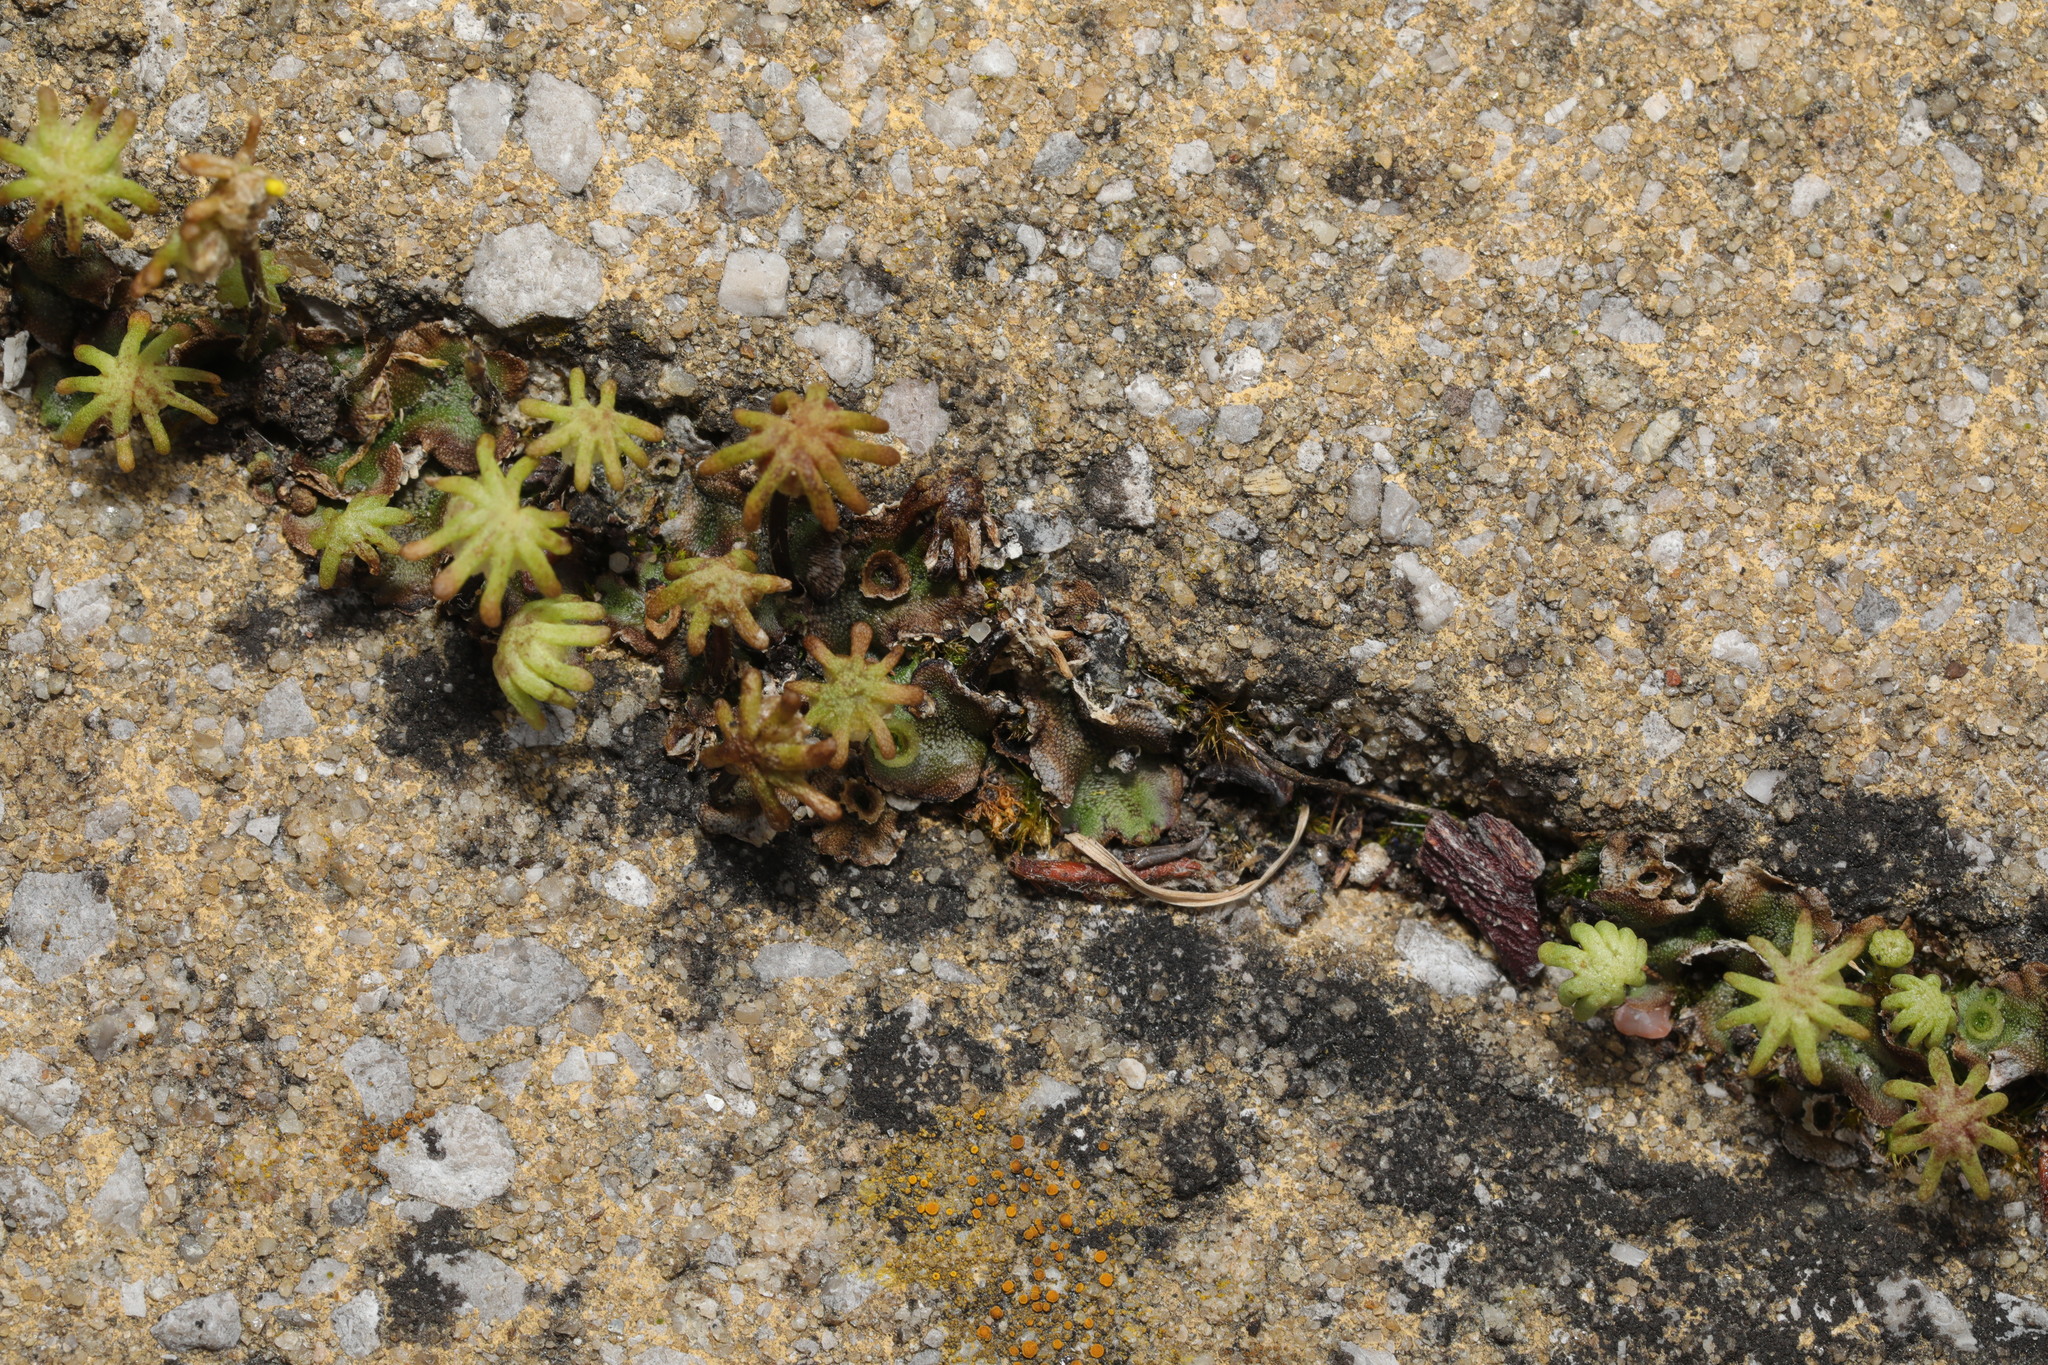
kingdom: Plantae
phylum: Marchantiophyta
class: Marchantiopsida
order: Marchantiales
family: Marchantiaceae
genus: Marchantia
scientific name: Marchantia polymorpha
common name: Common liverwort
